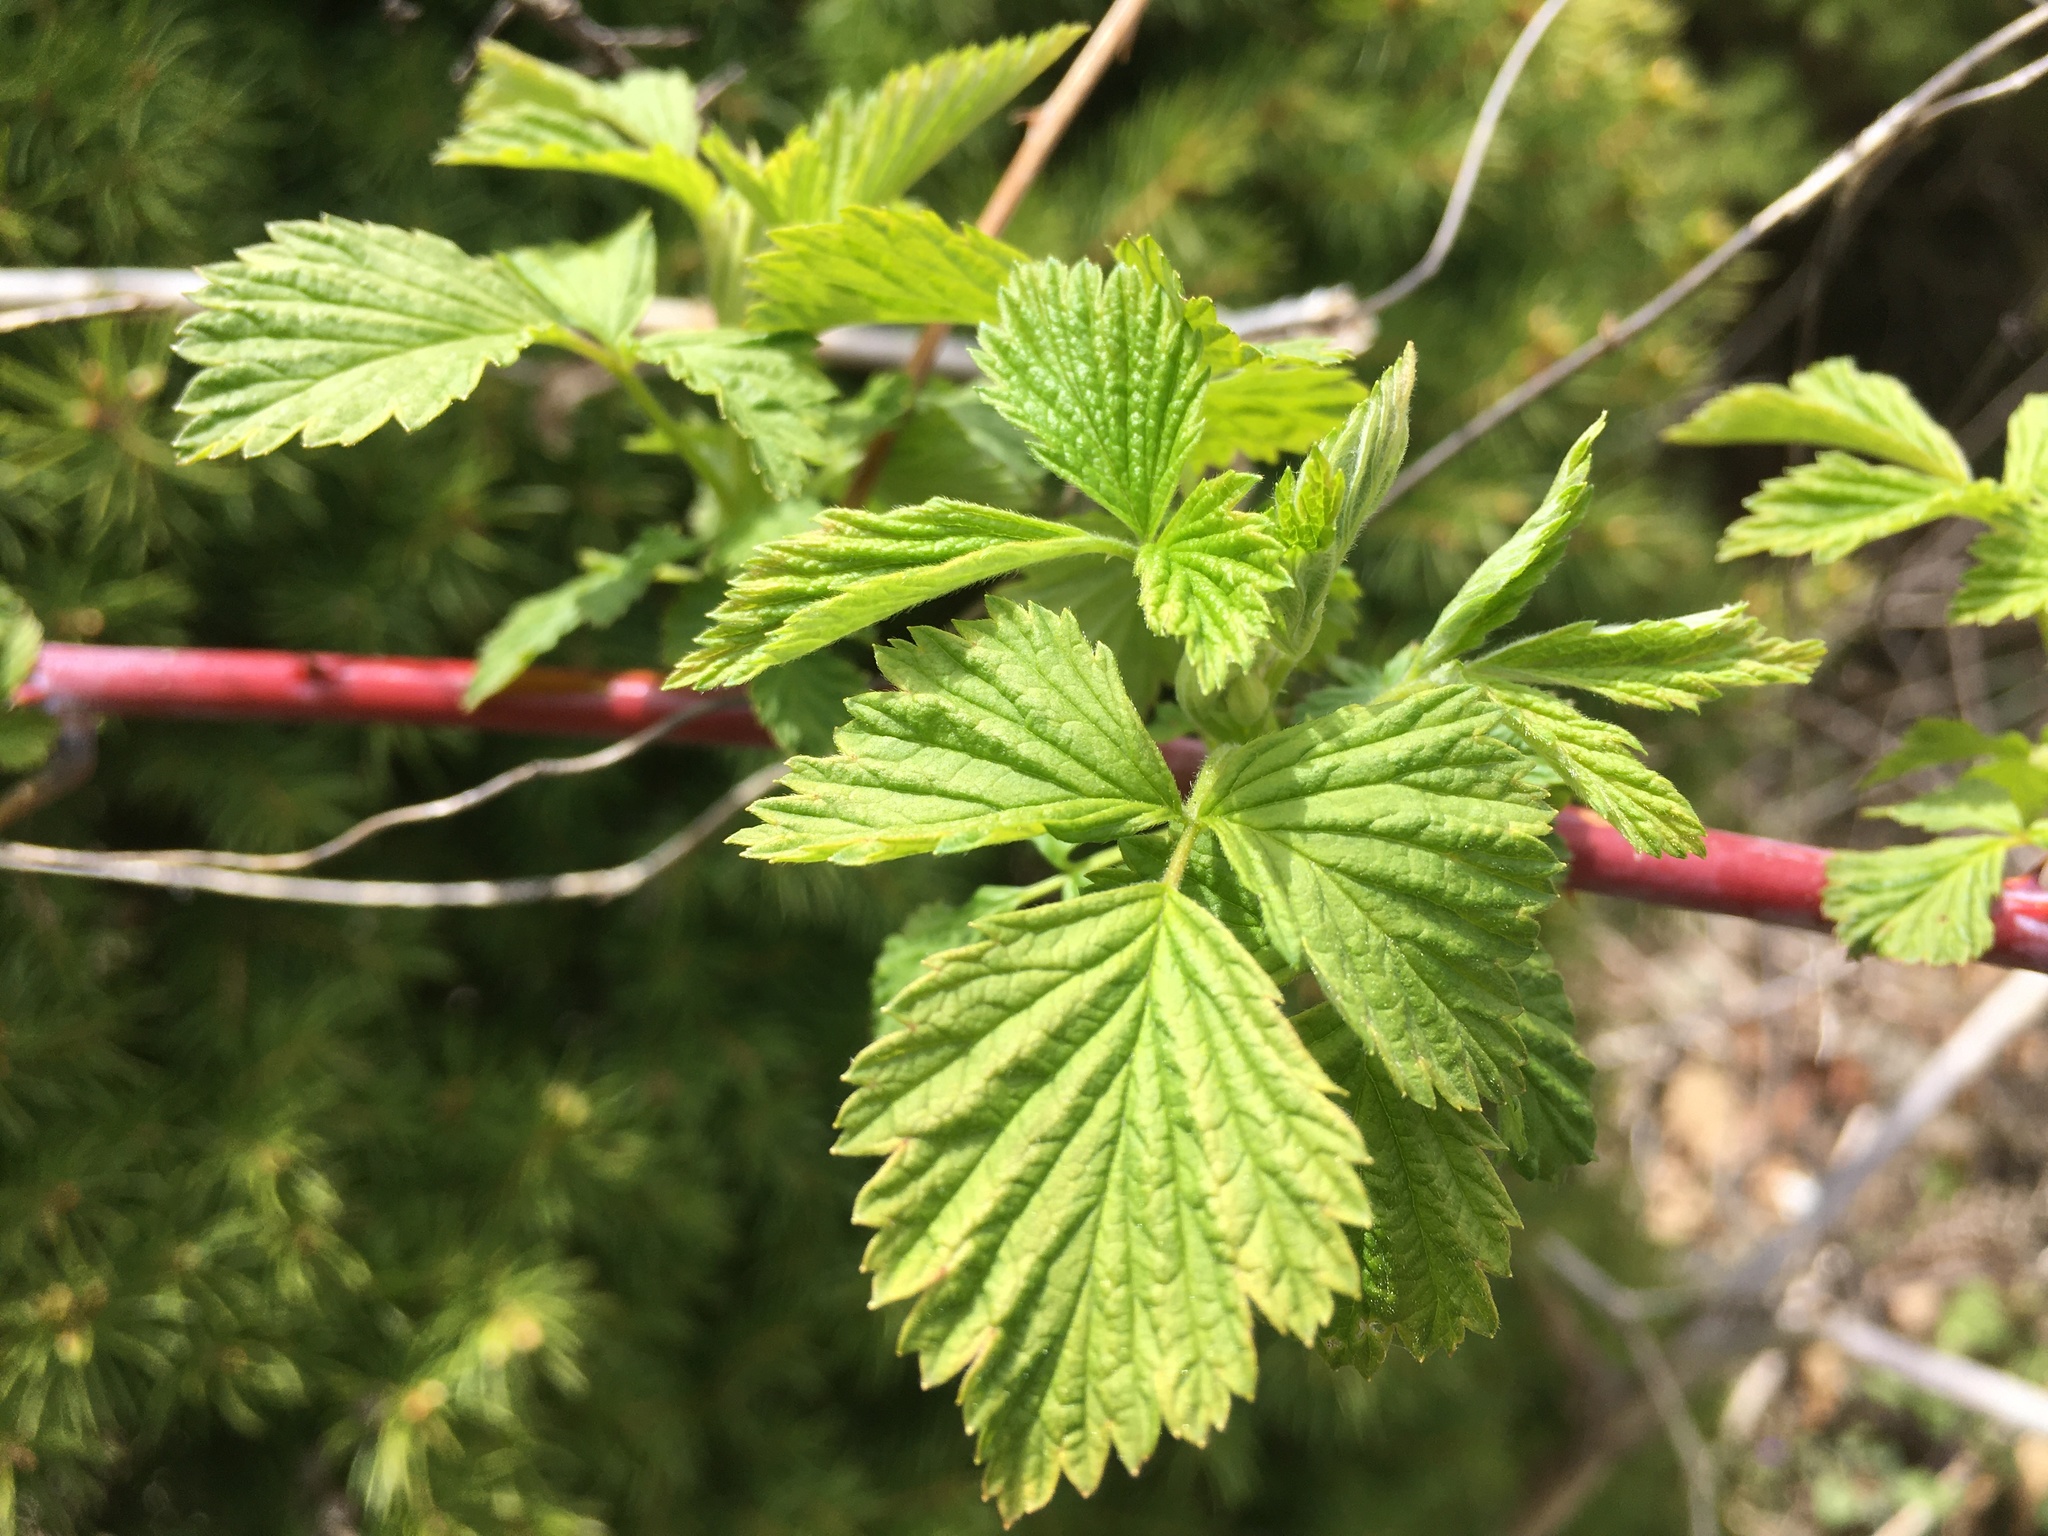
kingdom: Plantae
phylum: Tracheophyta
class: Magnoliopsida
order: Rosales
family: Rosaceae
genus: Rubus
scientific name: Rubus occidentalis
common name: Black raspberry
